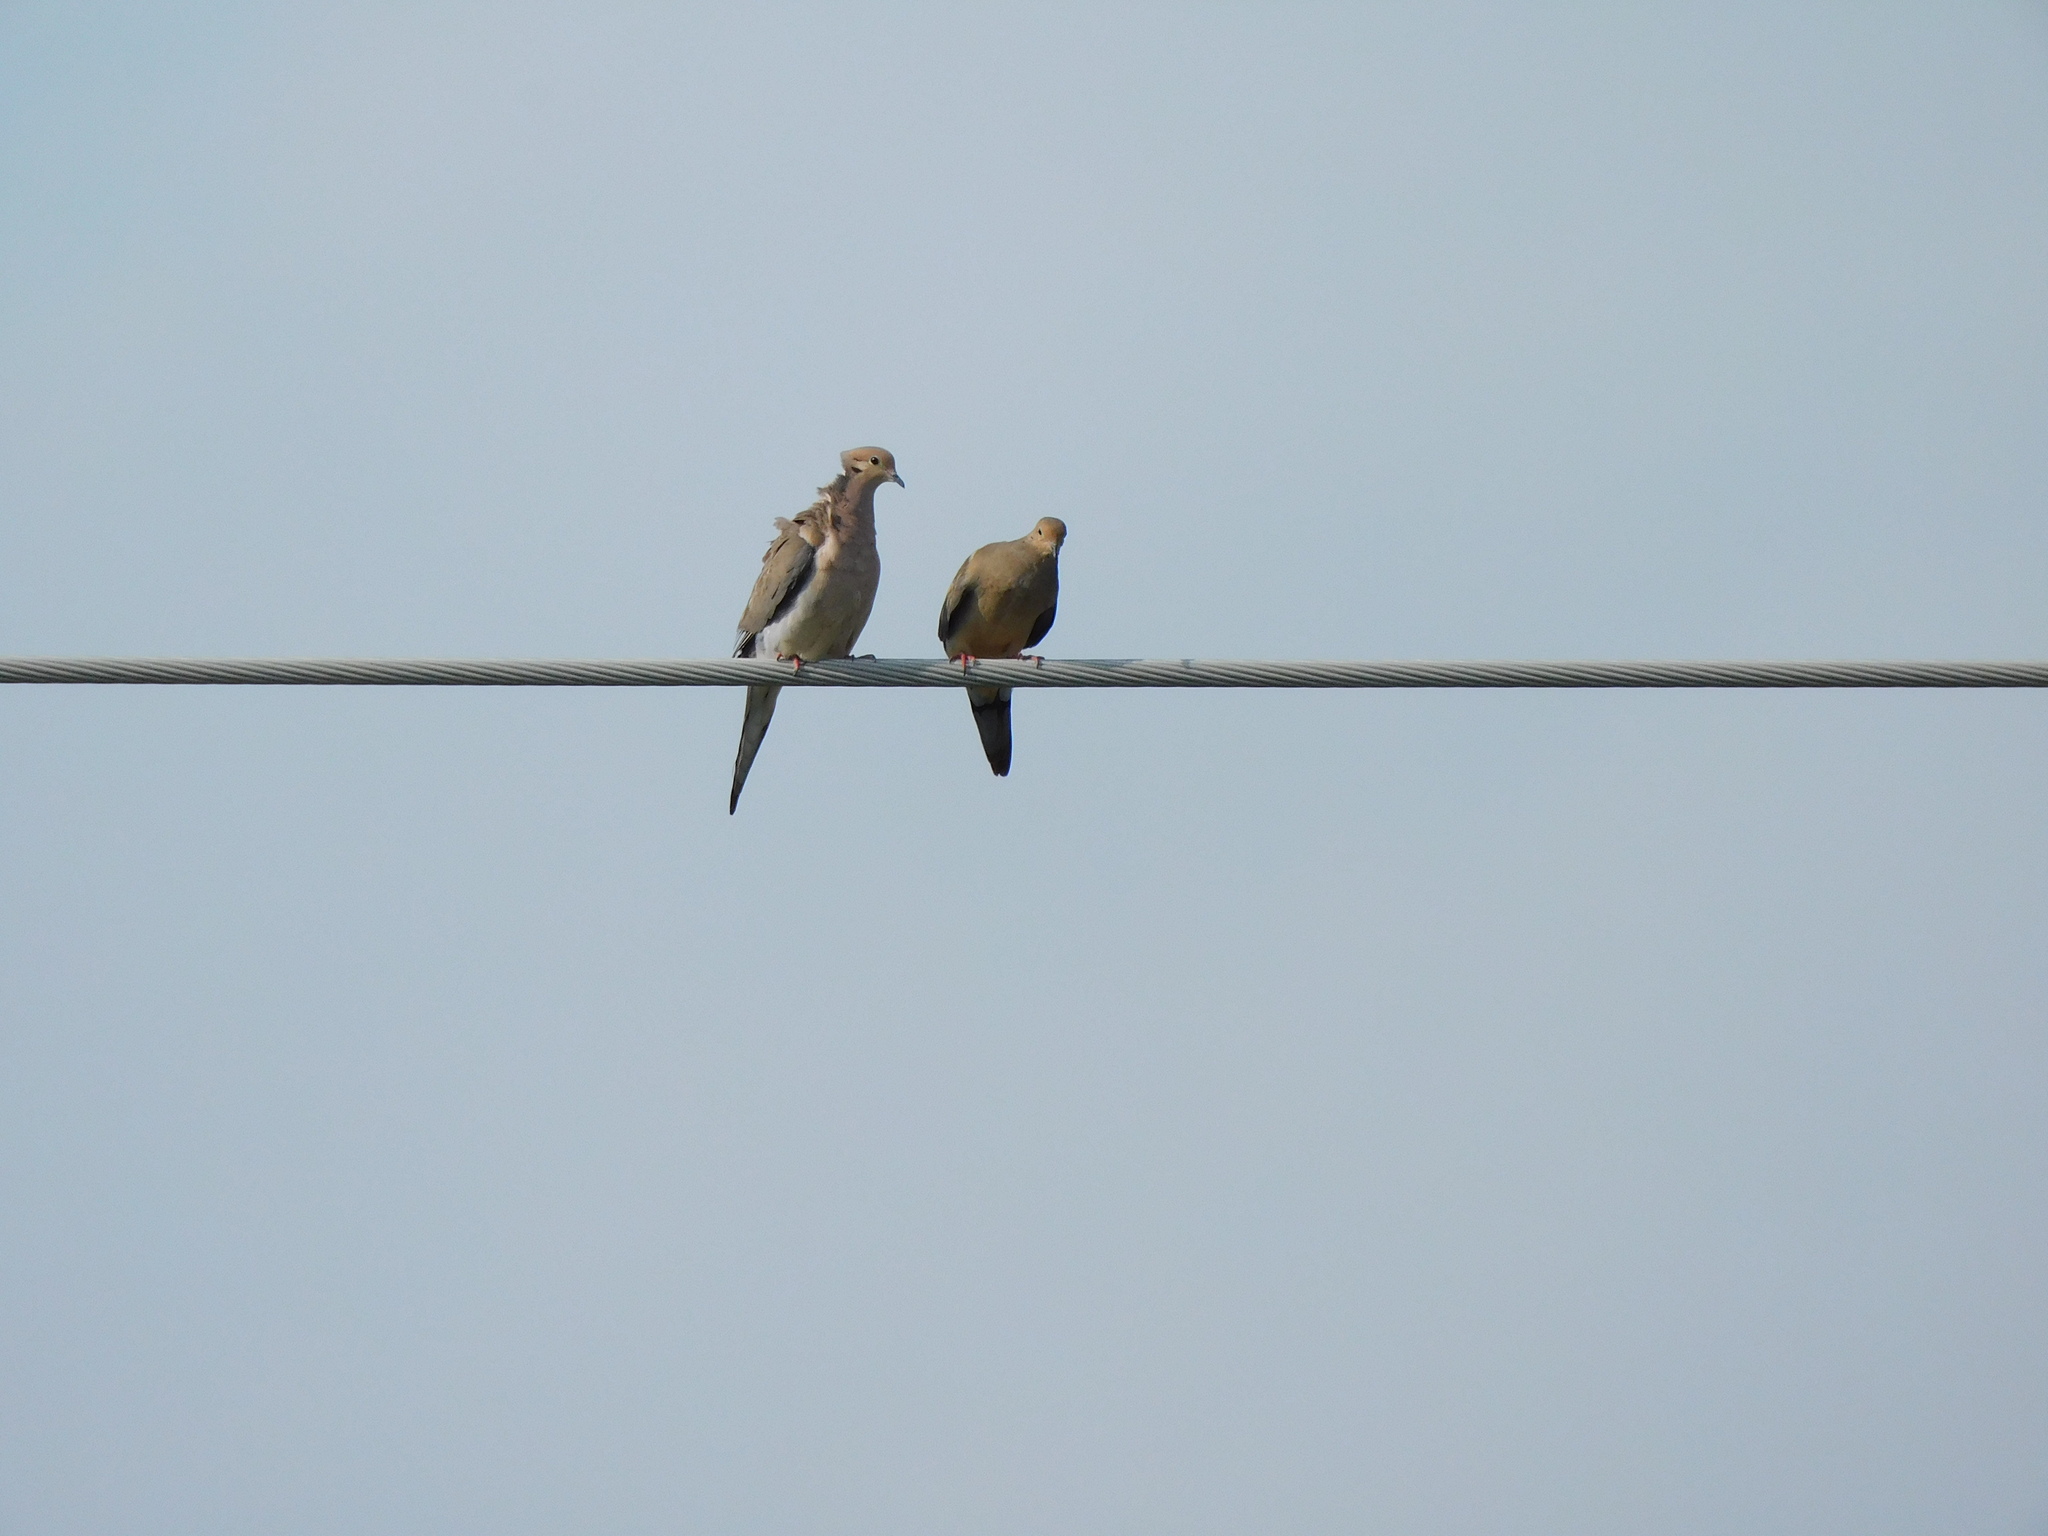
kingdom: Animalia
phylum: Chordata
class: Aves
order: Columbiformes
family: Columbidae
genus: Zenaida
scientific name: Zenaida macroura
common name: Mourning dove
